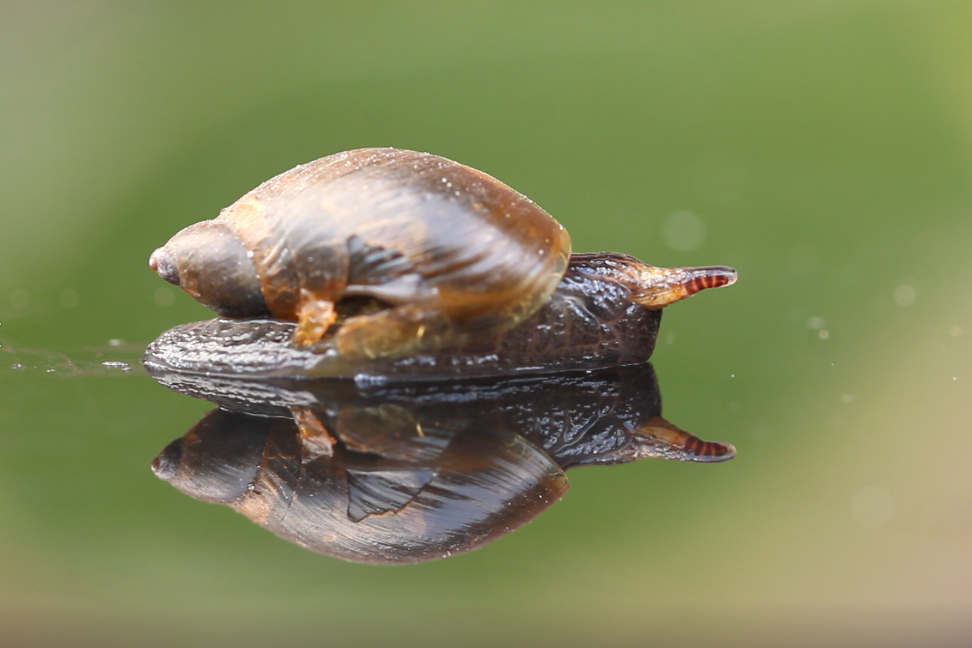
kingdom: Animalia
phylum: Platyhelminthes
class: Trematoda
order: Diplostomida
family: Leucochloridiidae
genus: Leucochloridium
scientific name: Leucochloridium perturbatum
